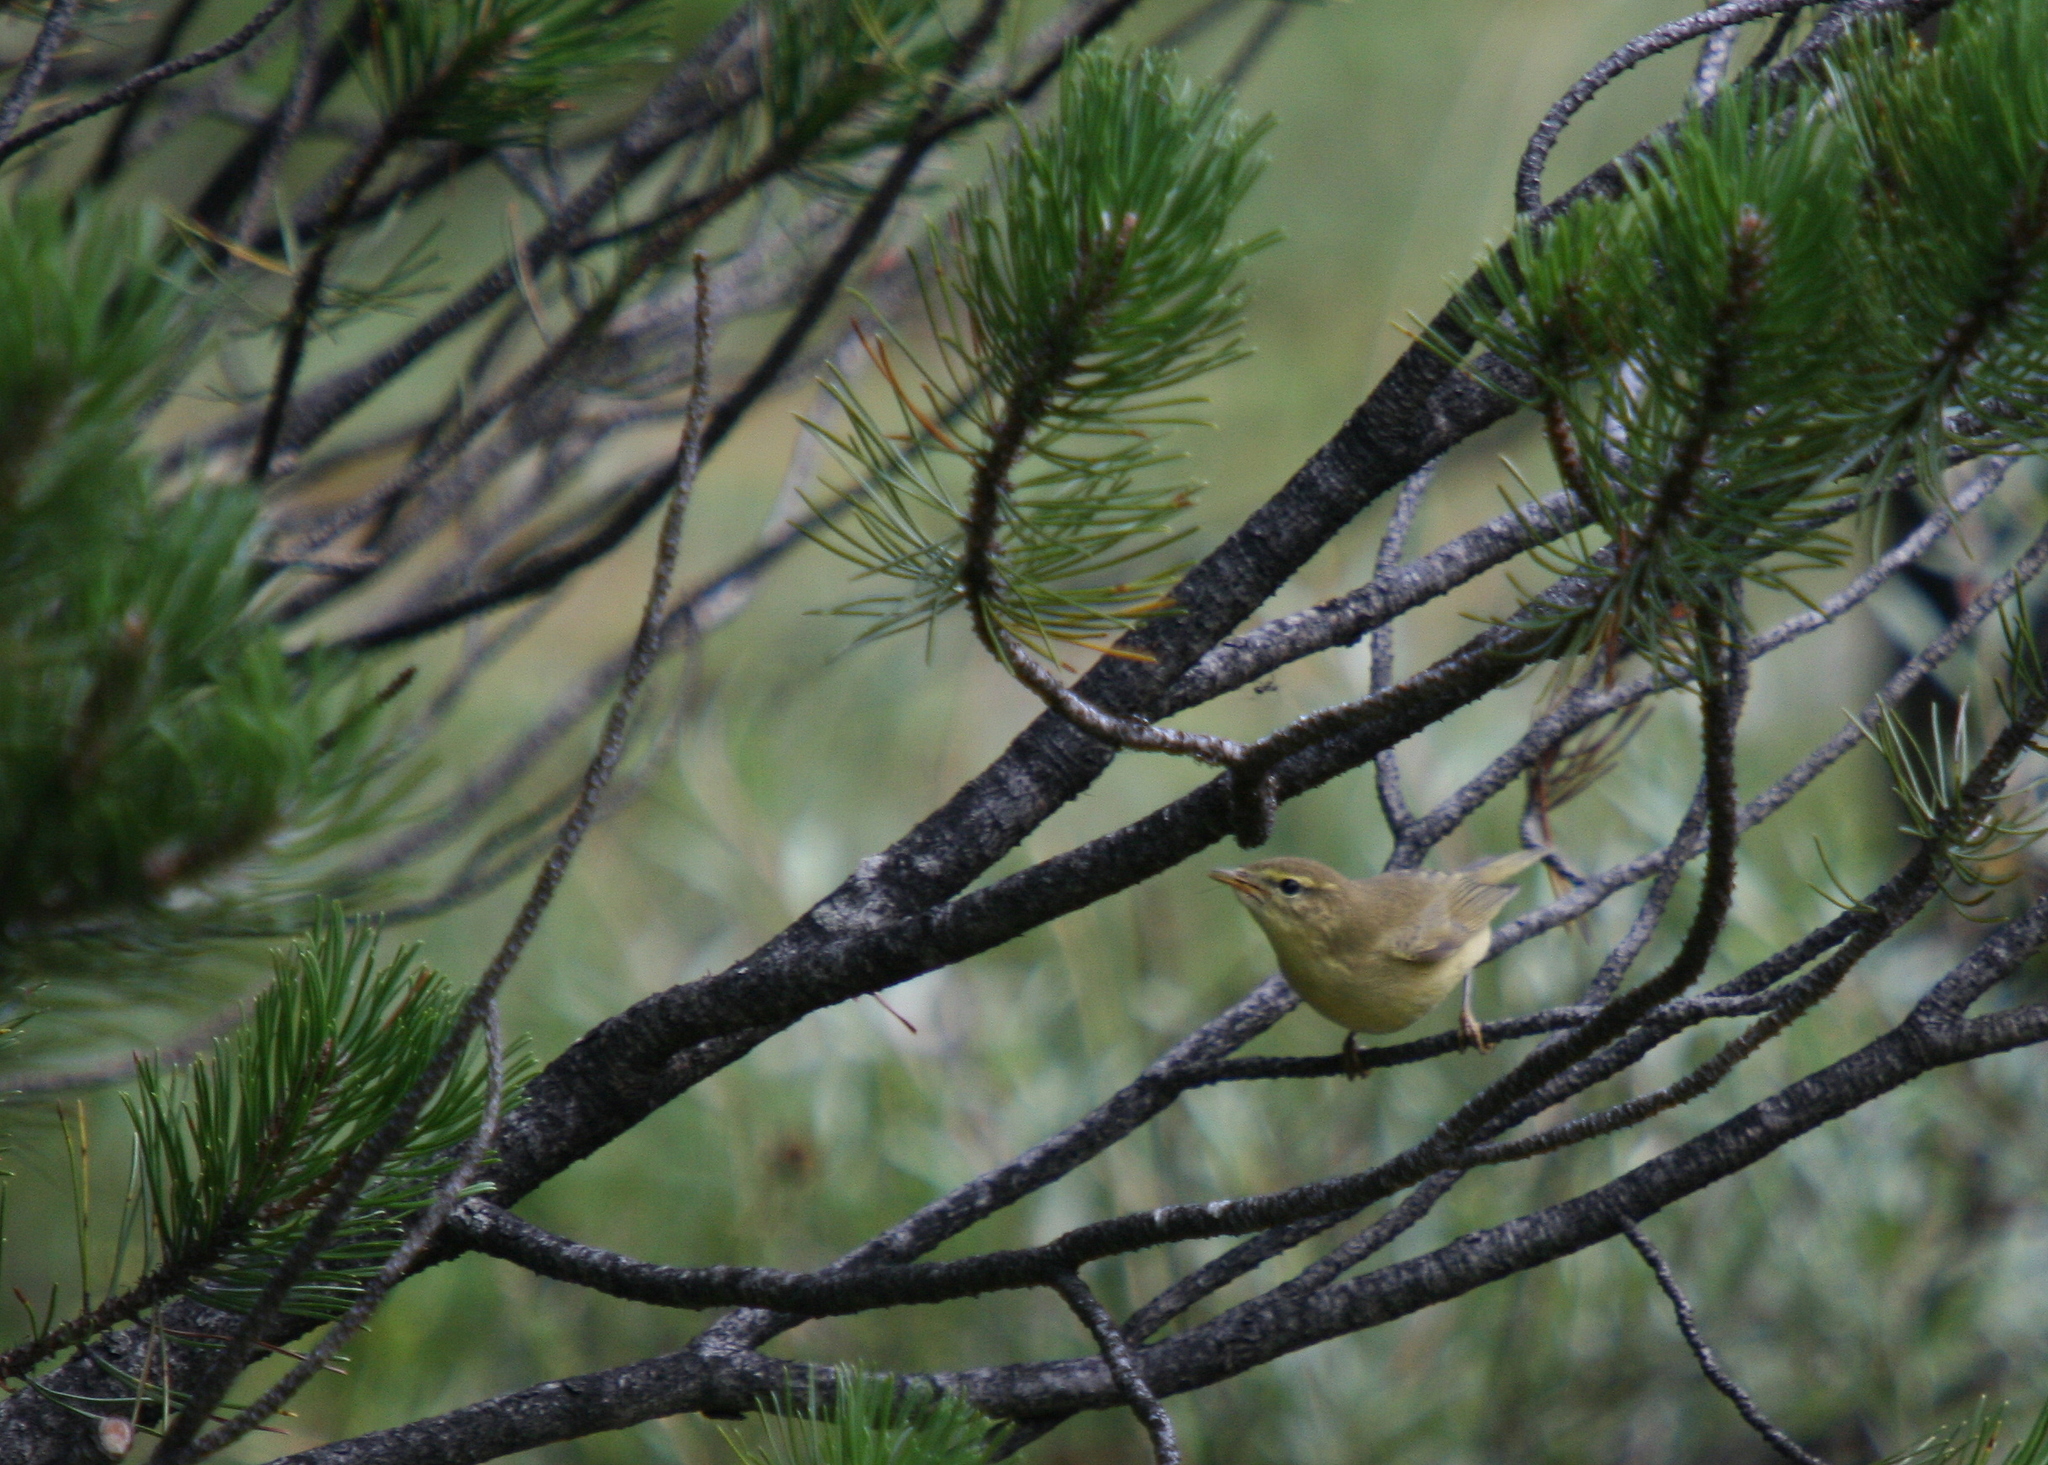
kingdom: Animalia
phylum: Chordata
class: Aves
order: Passeriformes
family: Phylloscopidae
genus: Phylloscopus
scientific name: Phylloscopus trochilus
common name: Willow warbler
